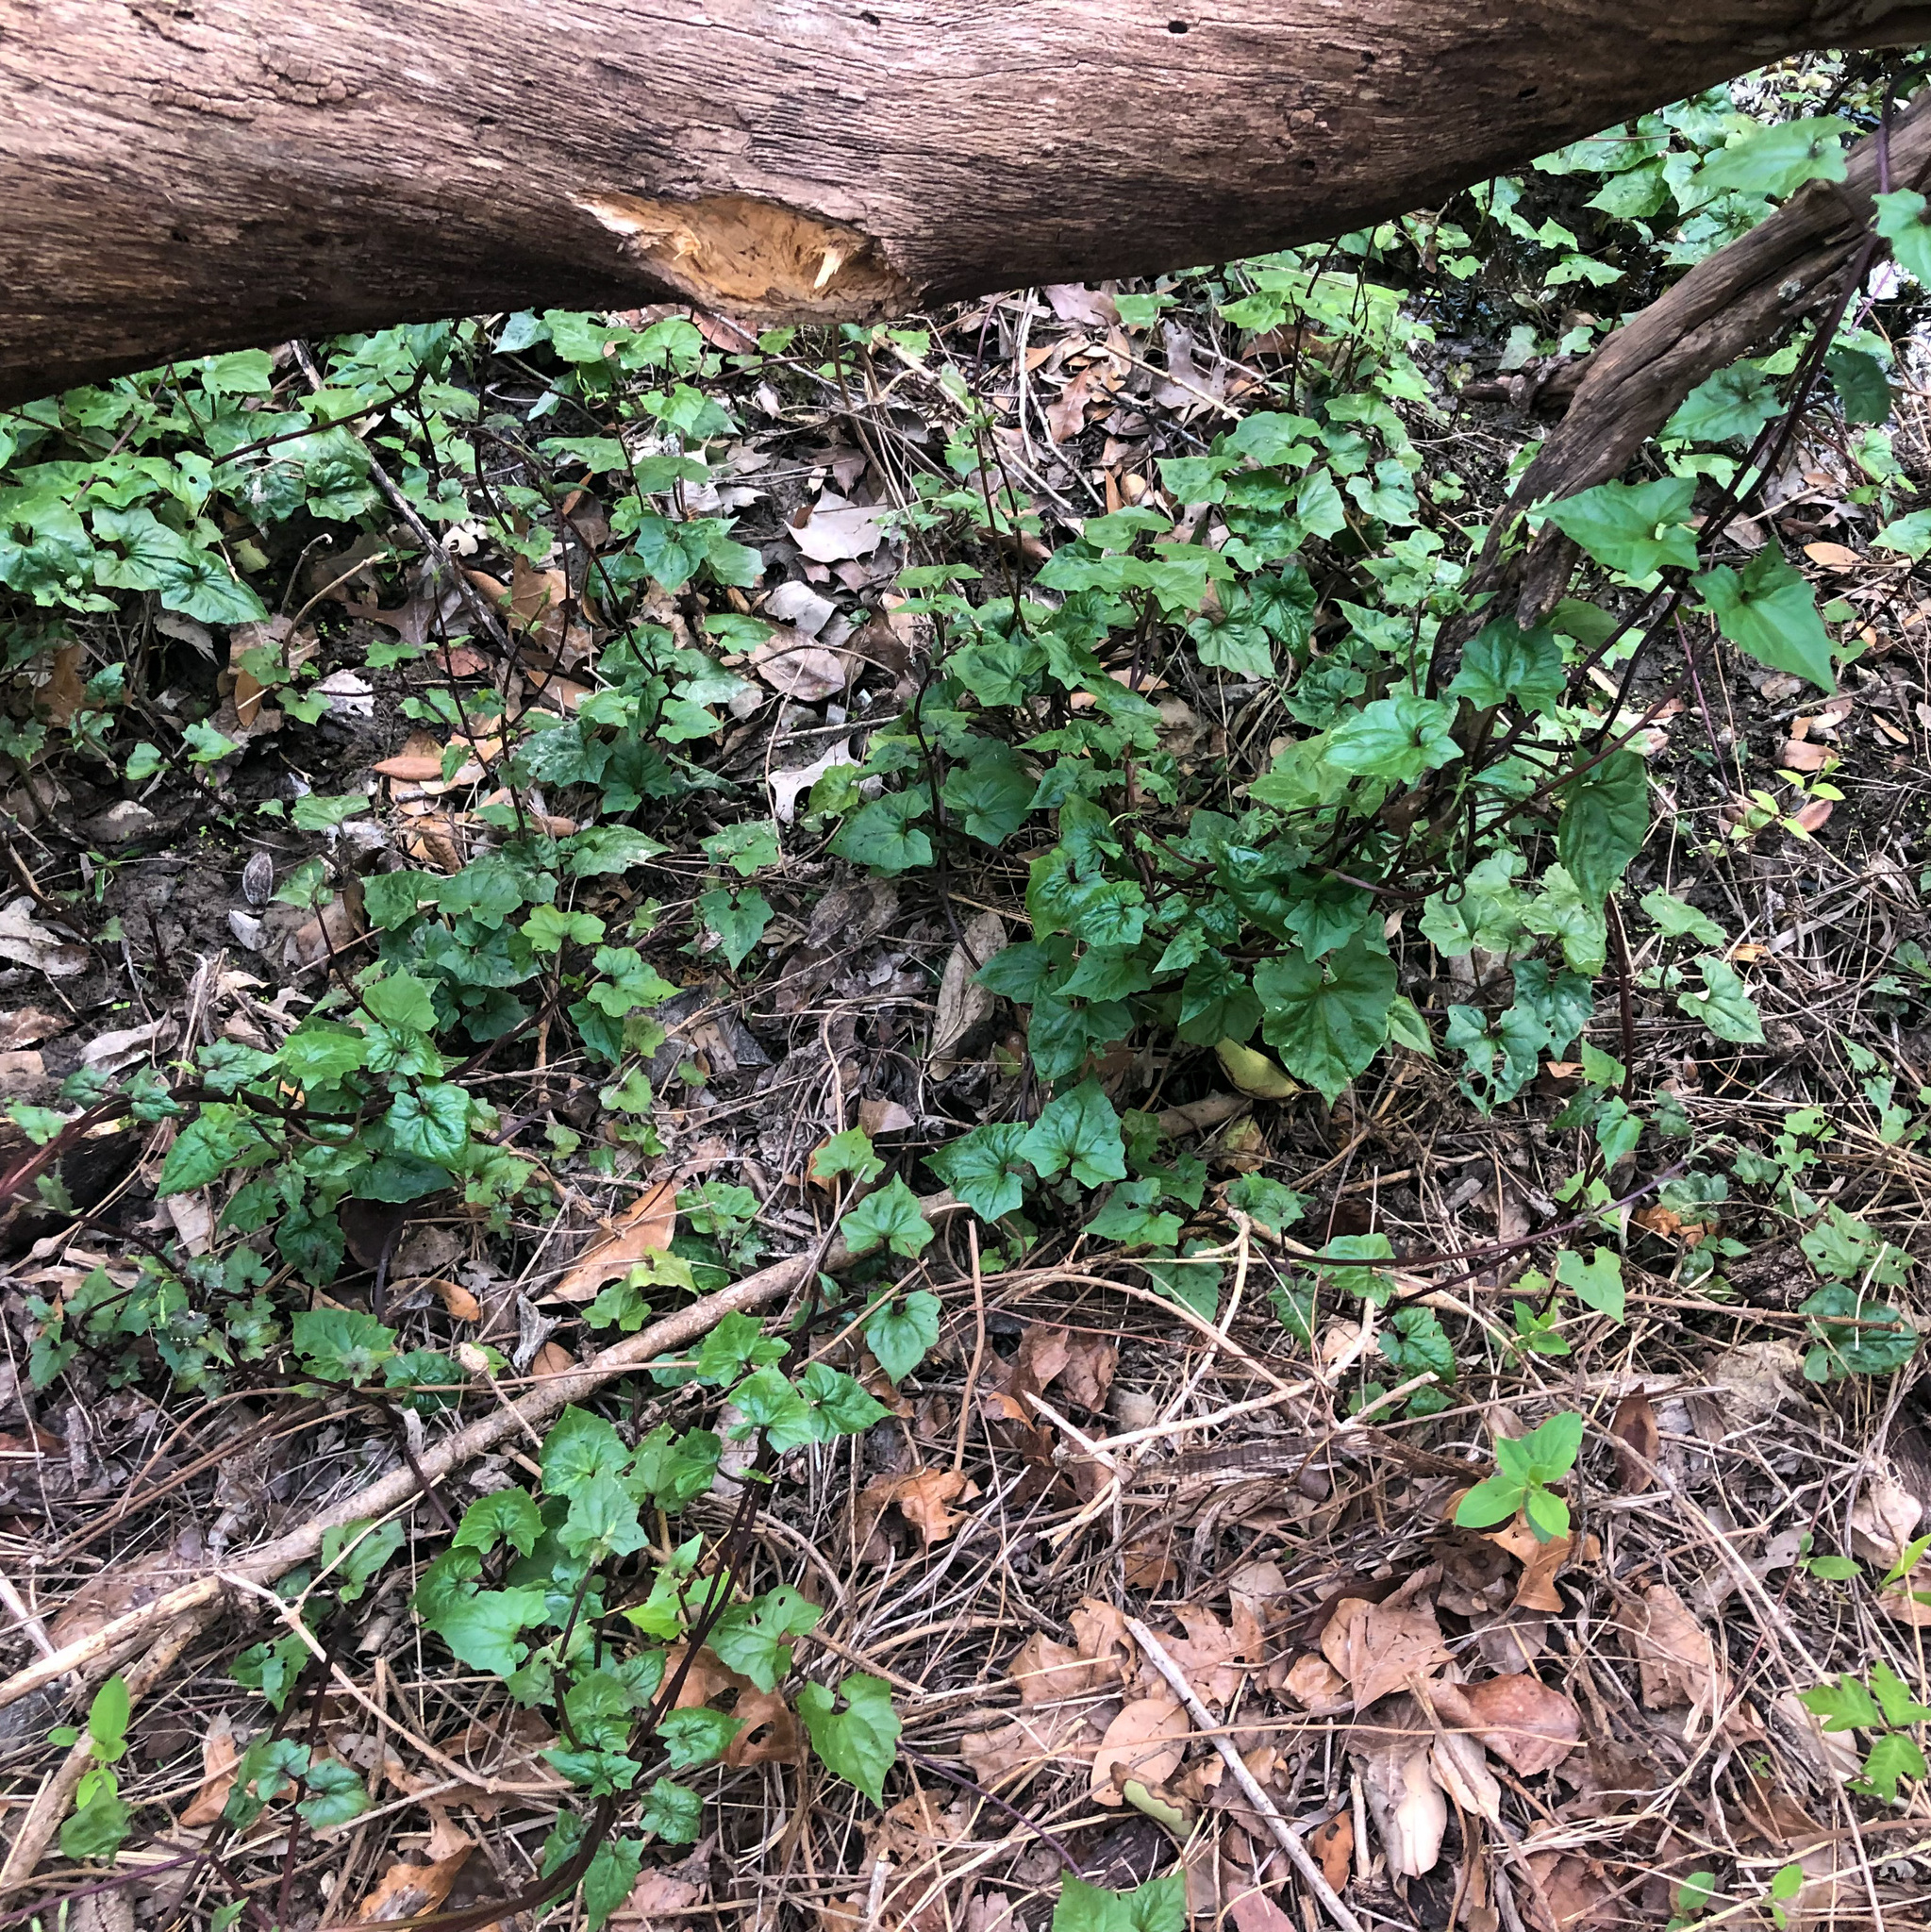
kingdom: Plantae
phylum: Tracheophyta
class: Magnoliopsida
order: Asterales
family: Asteraceae
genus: Mikania
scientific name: Mikania scandens
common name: Climbing hempvine
